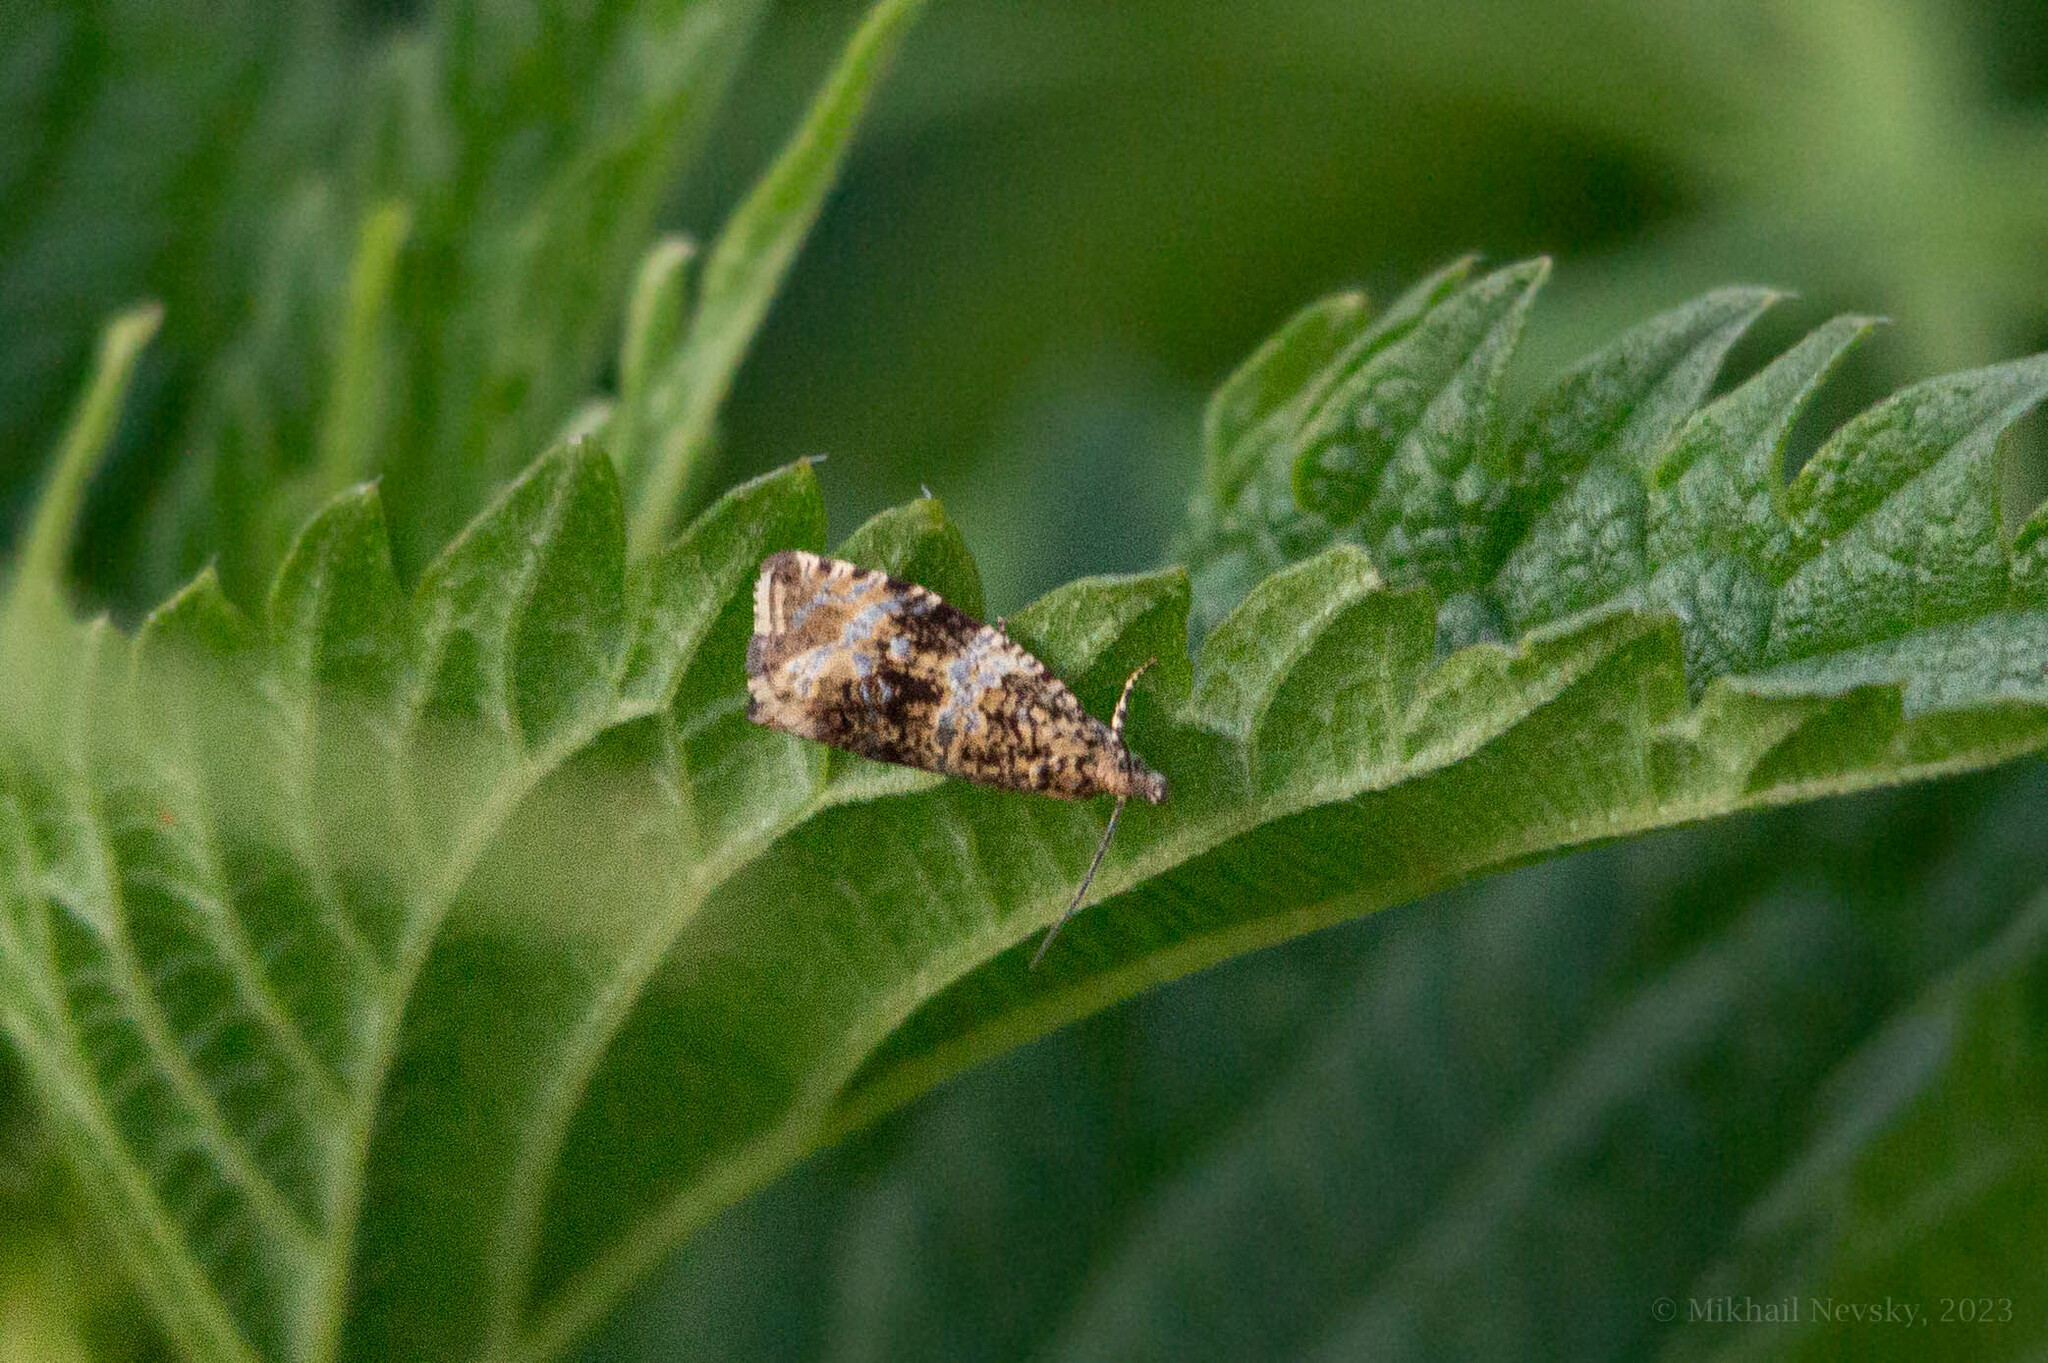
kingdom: Animalia
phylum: Arthropoda
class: Insecta
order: Lepidoptera
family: Tortricidae
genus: Syricoris
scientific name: Syricoris lacunana
